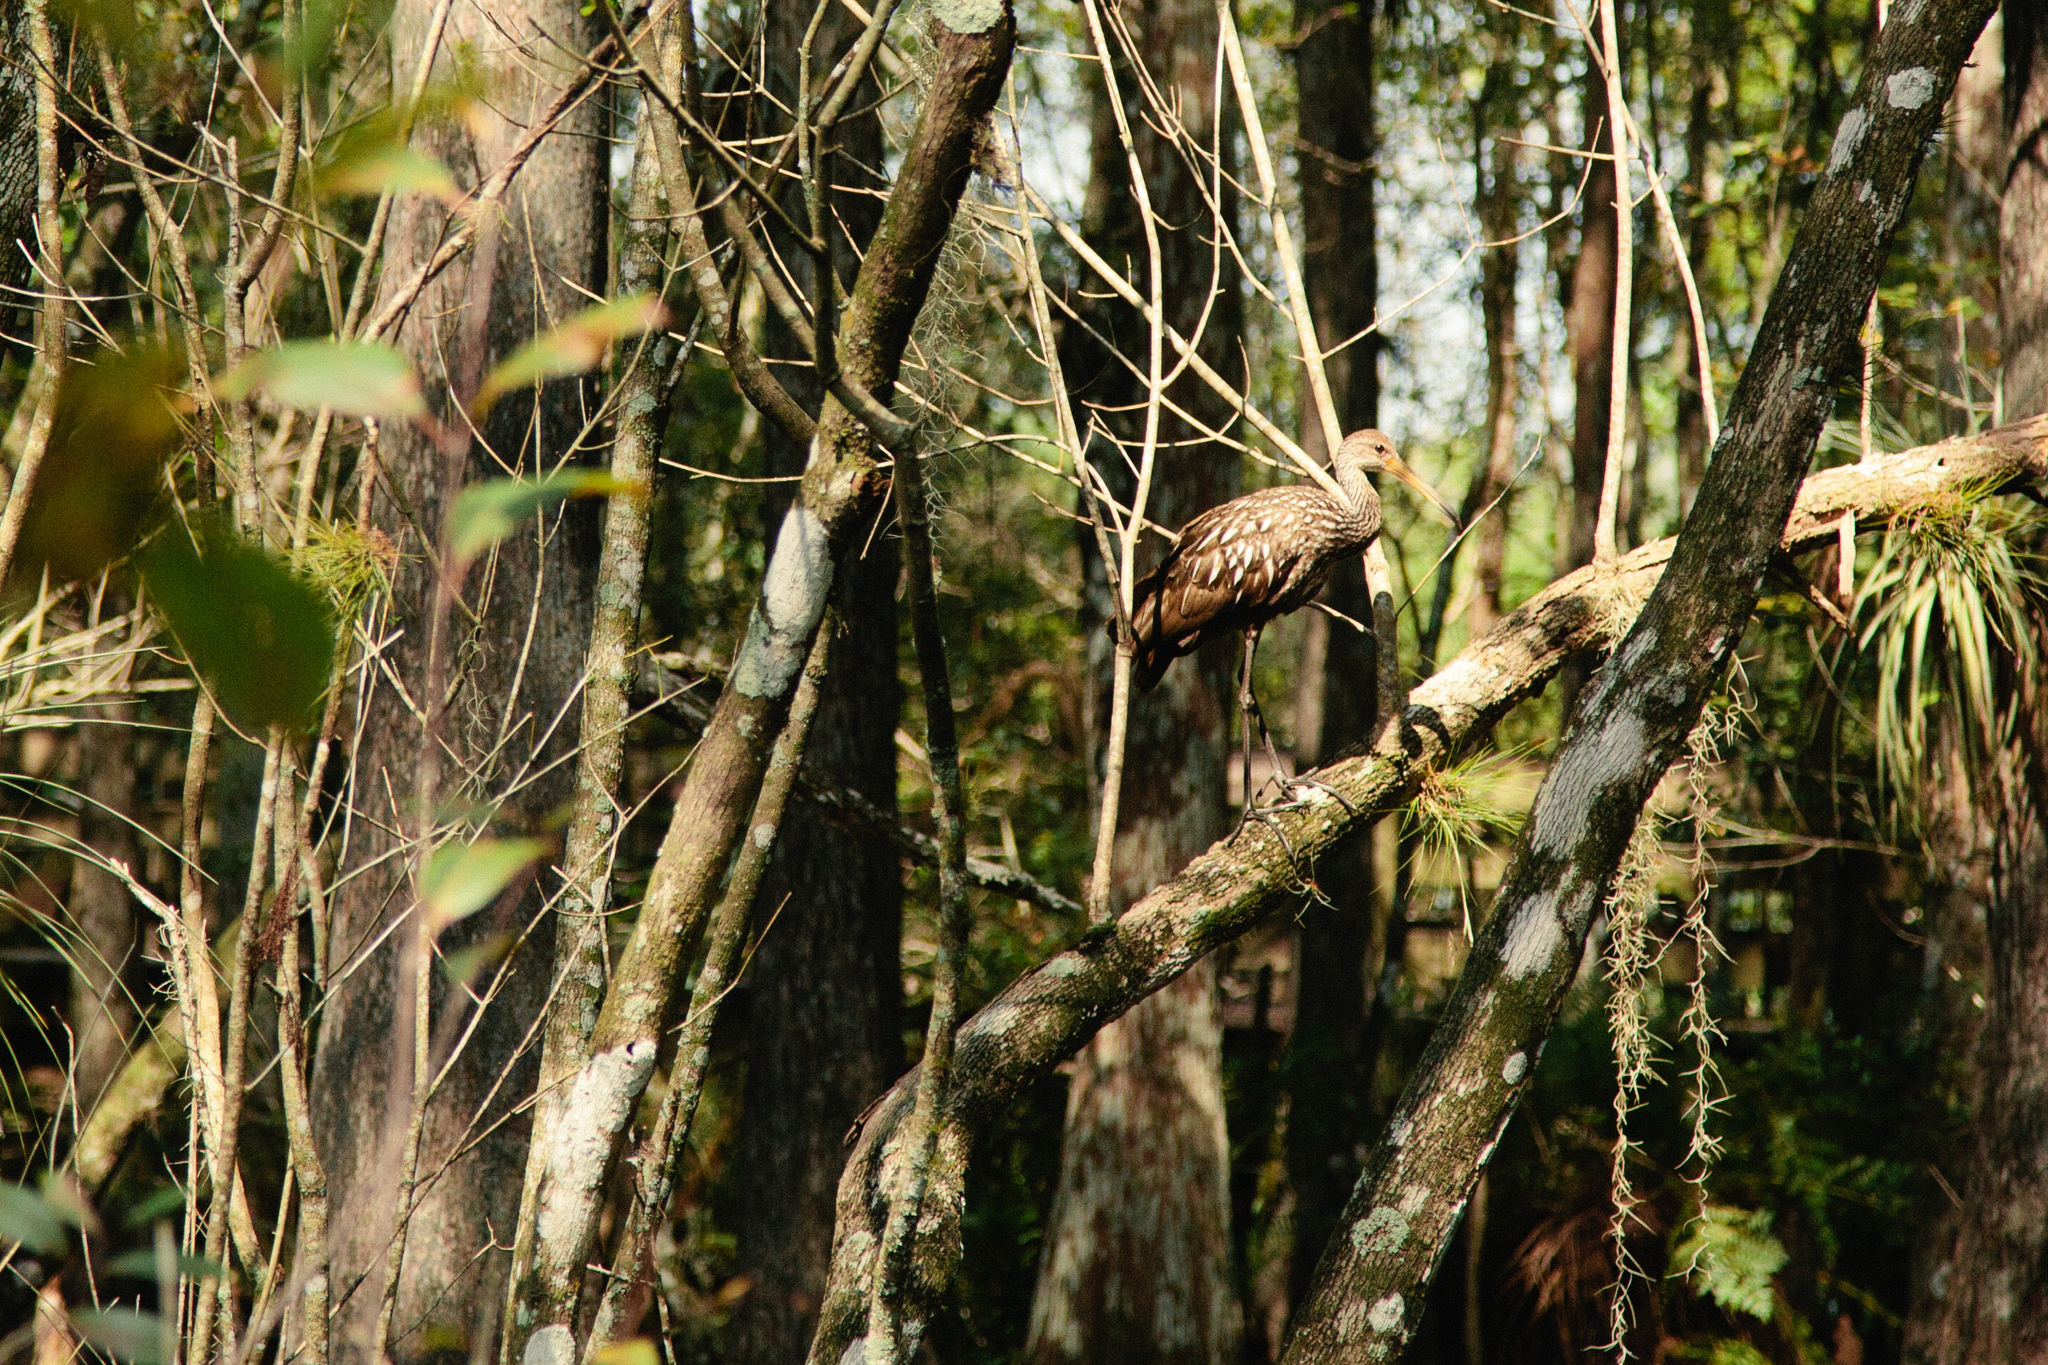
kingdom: Animalia
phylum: Chordata
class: Aves
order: Gruiformes
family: Aramidae
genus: Aramus
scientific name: Aramus guarauna
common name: Limpkin
